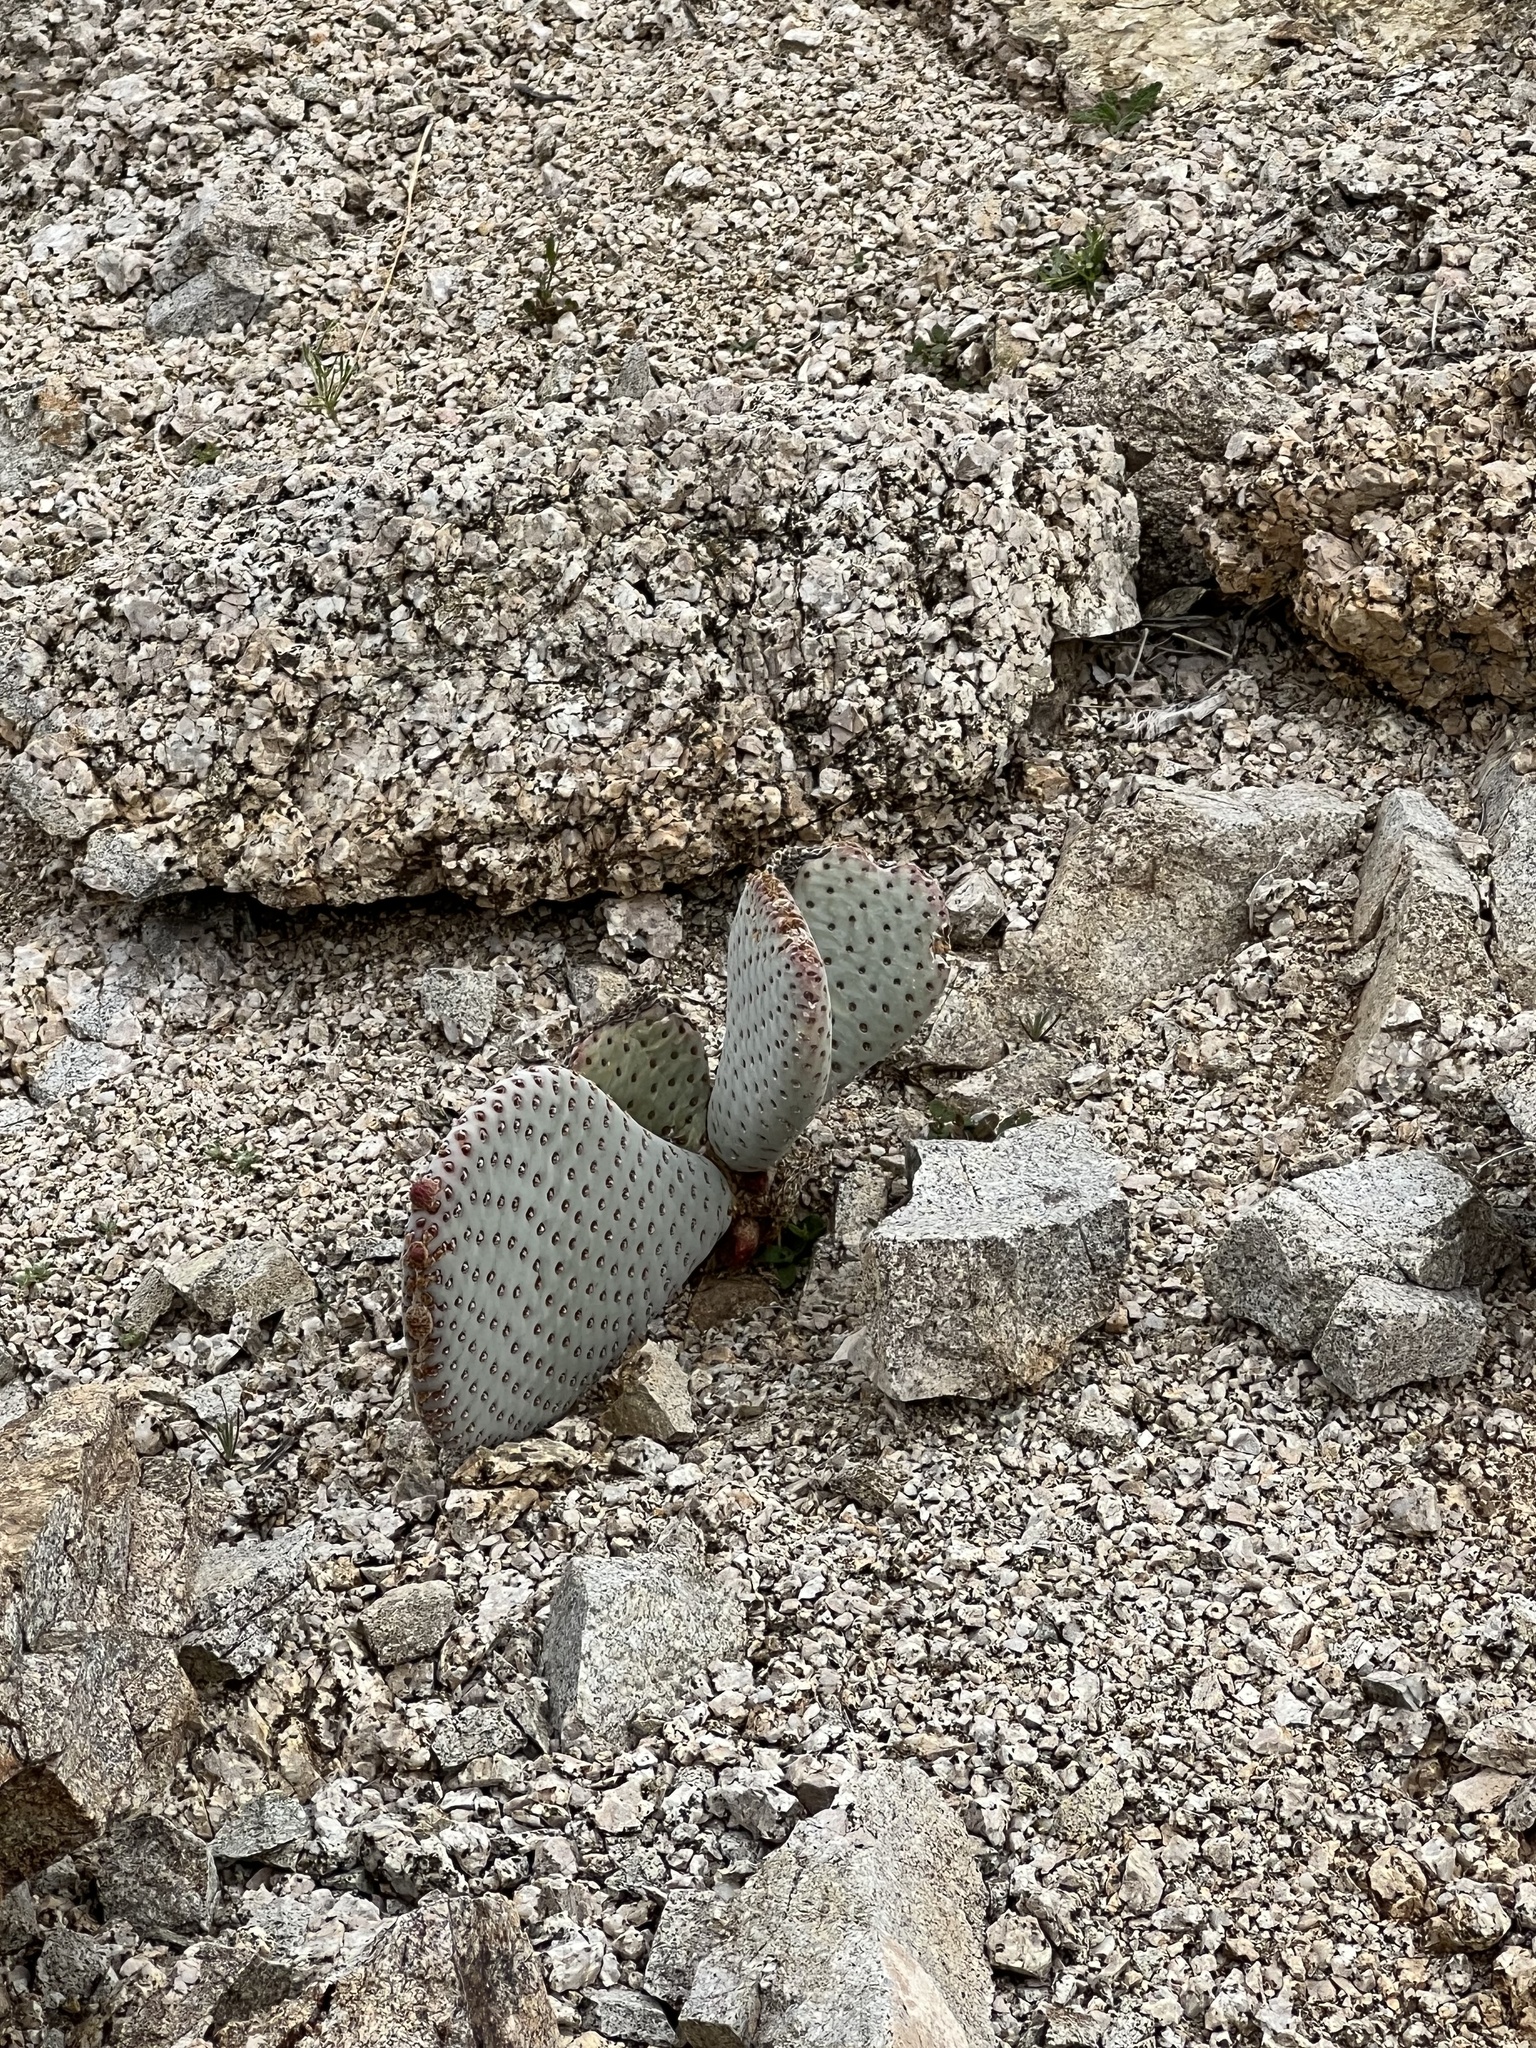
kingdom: Plantae
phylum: Tracheophyta
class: Magnoliopsida
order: Caryophyllales
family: Cactaceae
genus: Opuntia
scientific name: Opuntia basilaris
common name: Beavertail prickly-pear
